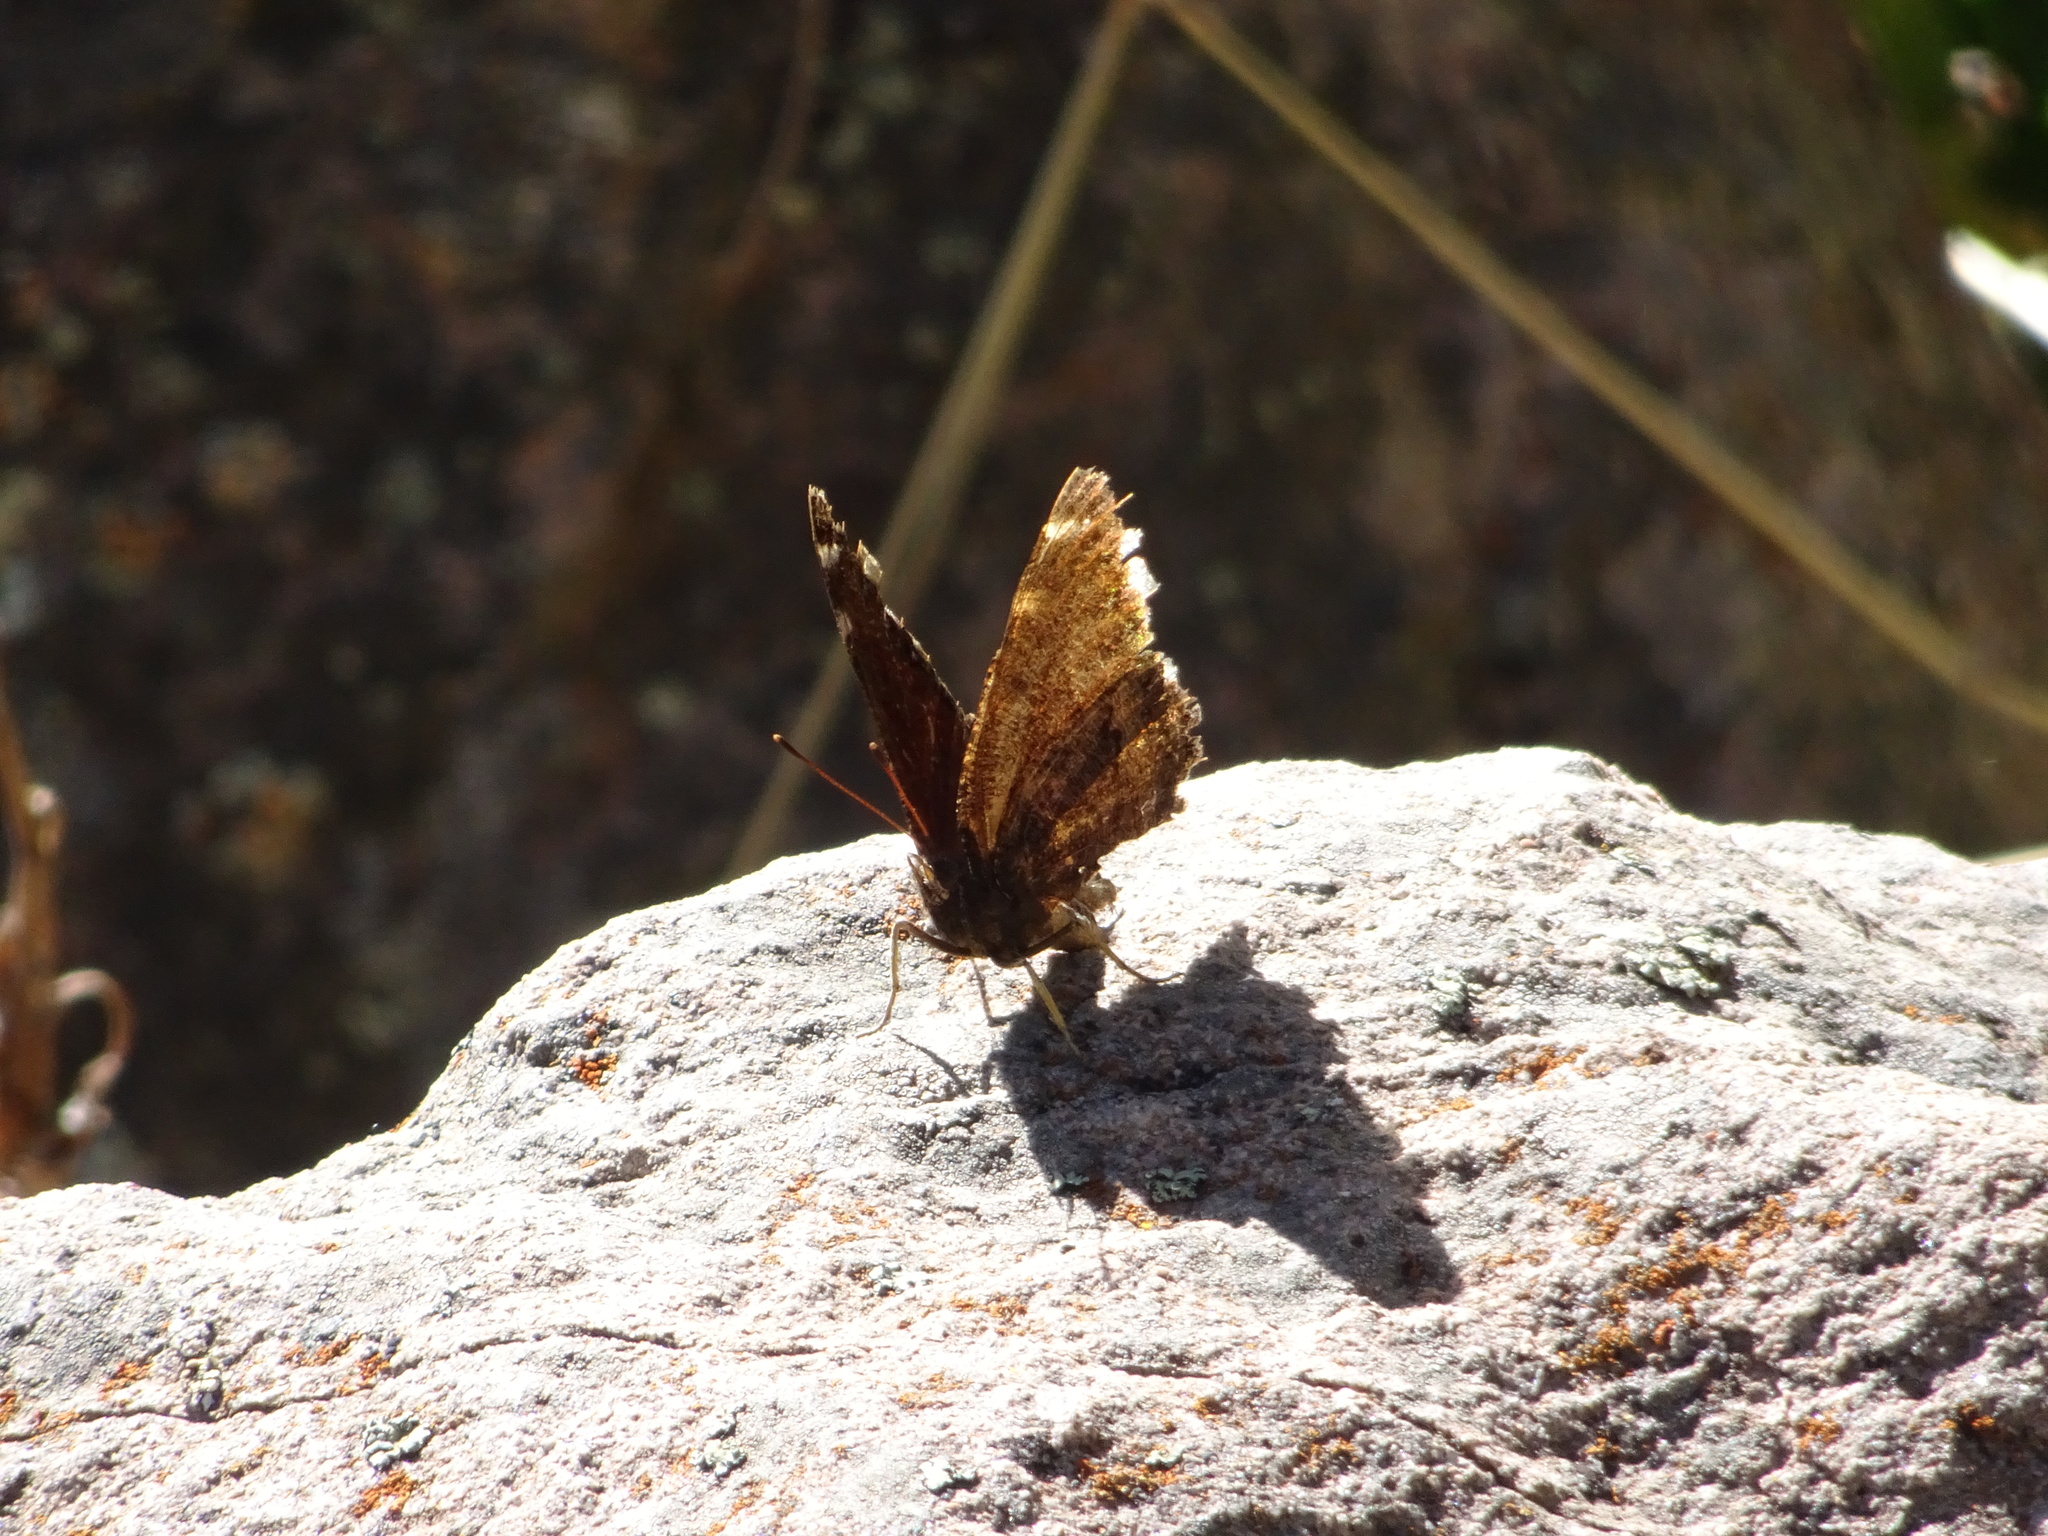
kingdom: Animalia
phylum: Arthropoda
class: Insecta
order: Lepidoptera
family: Nymphalidae
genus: Nymphalis
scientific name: Nymphalis antiopa
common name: Camberwell beauty
